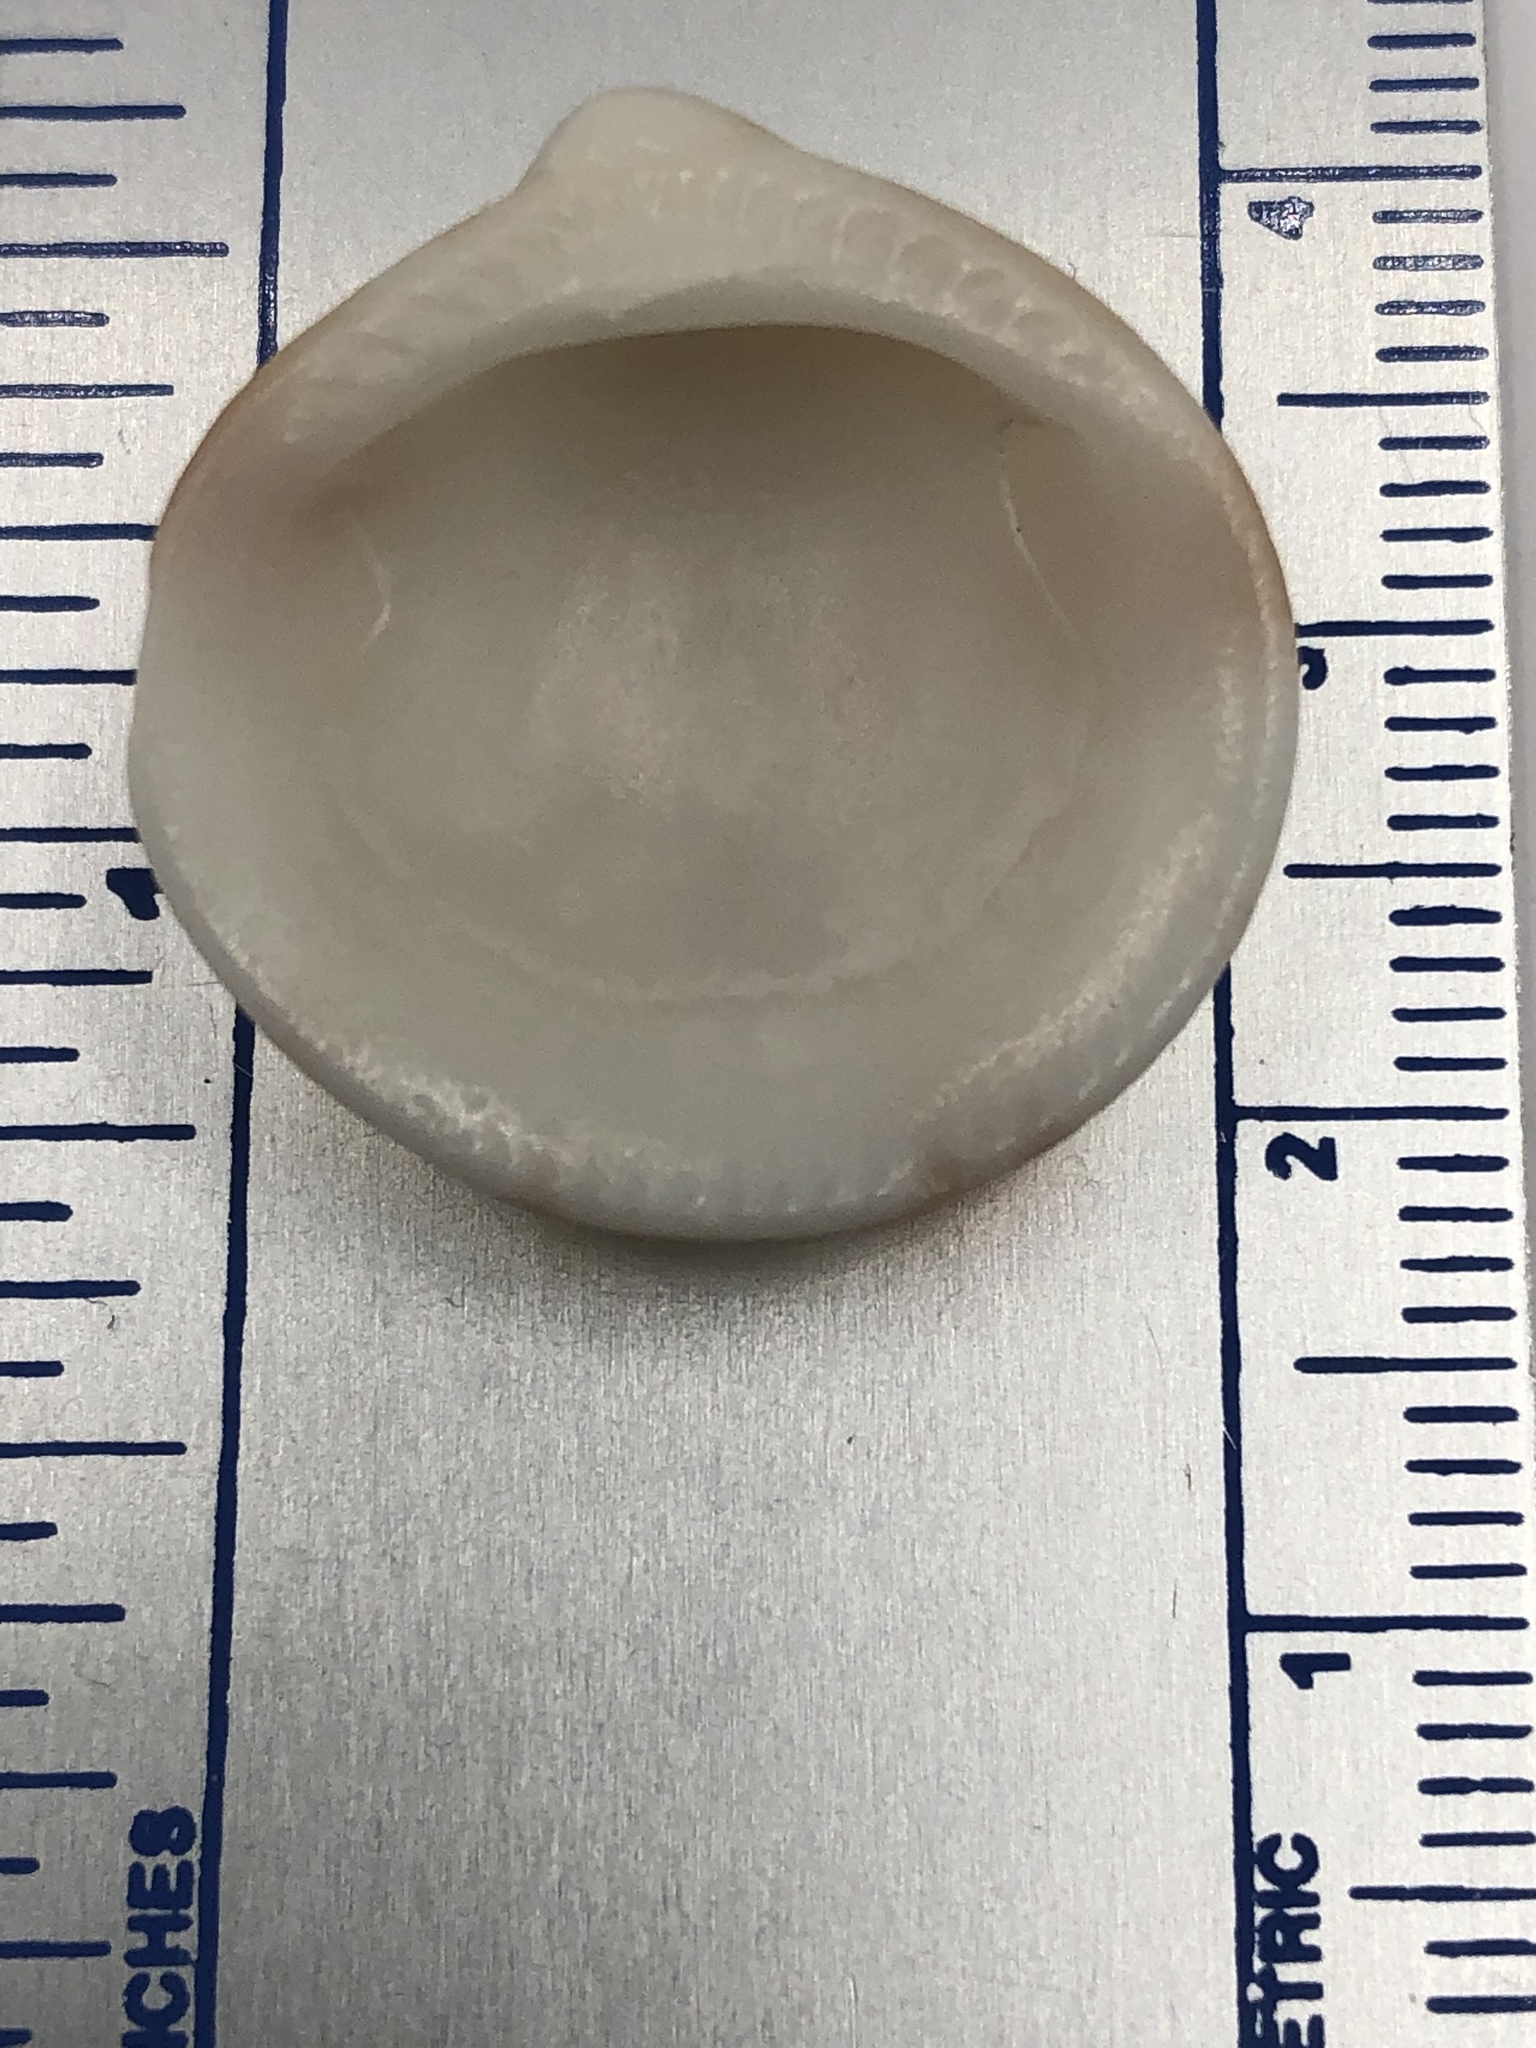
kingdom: Animalia
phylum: Mollusca
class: Bivalvia
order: Arcida
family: Glycymerididae
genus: Glycymeris
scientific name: Glycymeris decussata
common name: Decussate bittersweet
